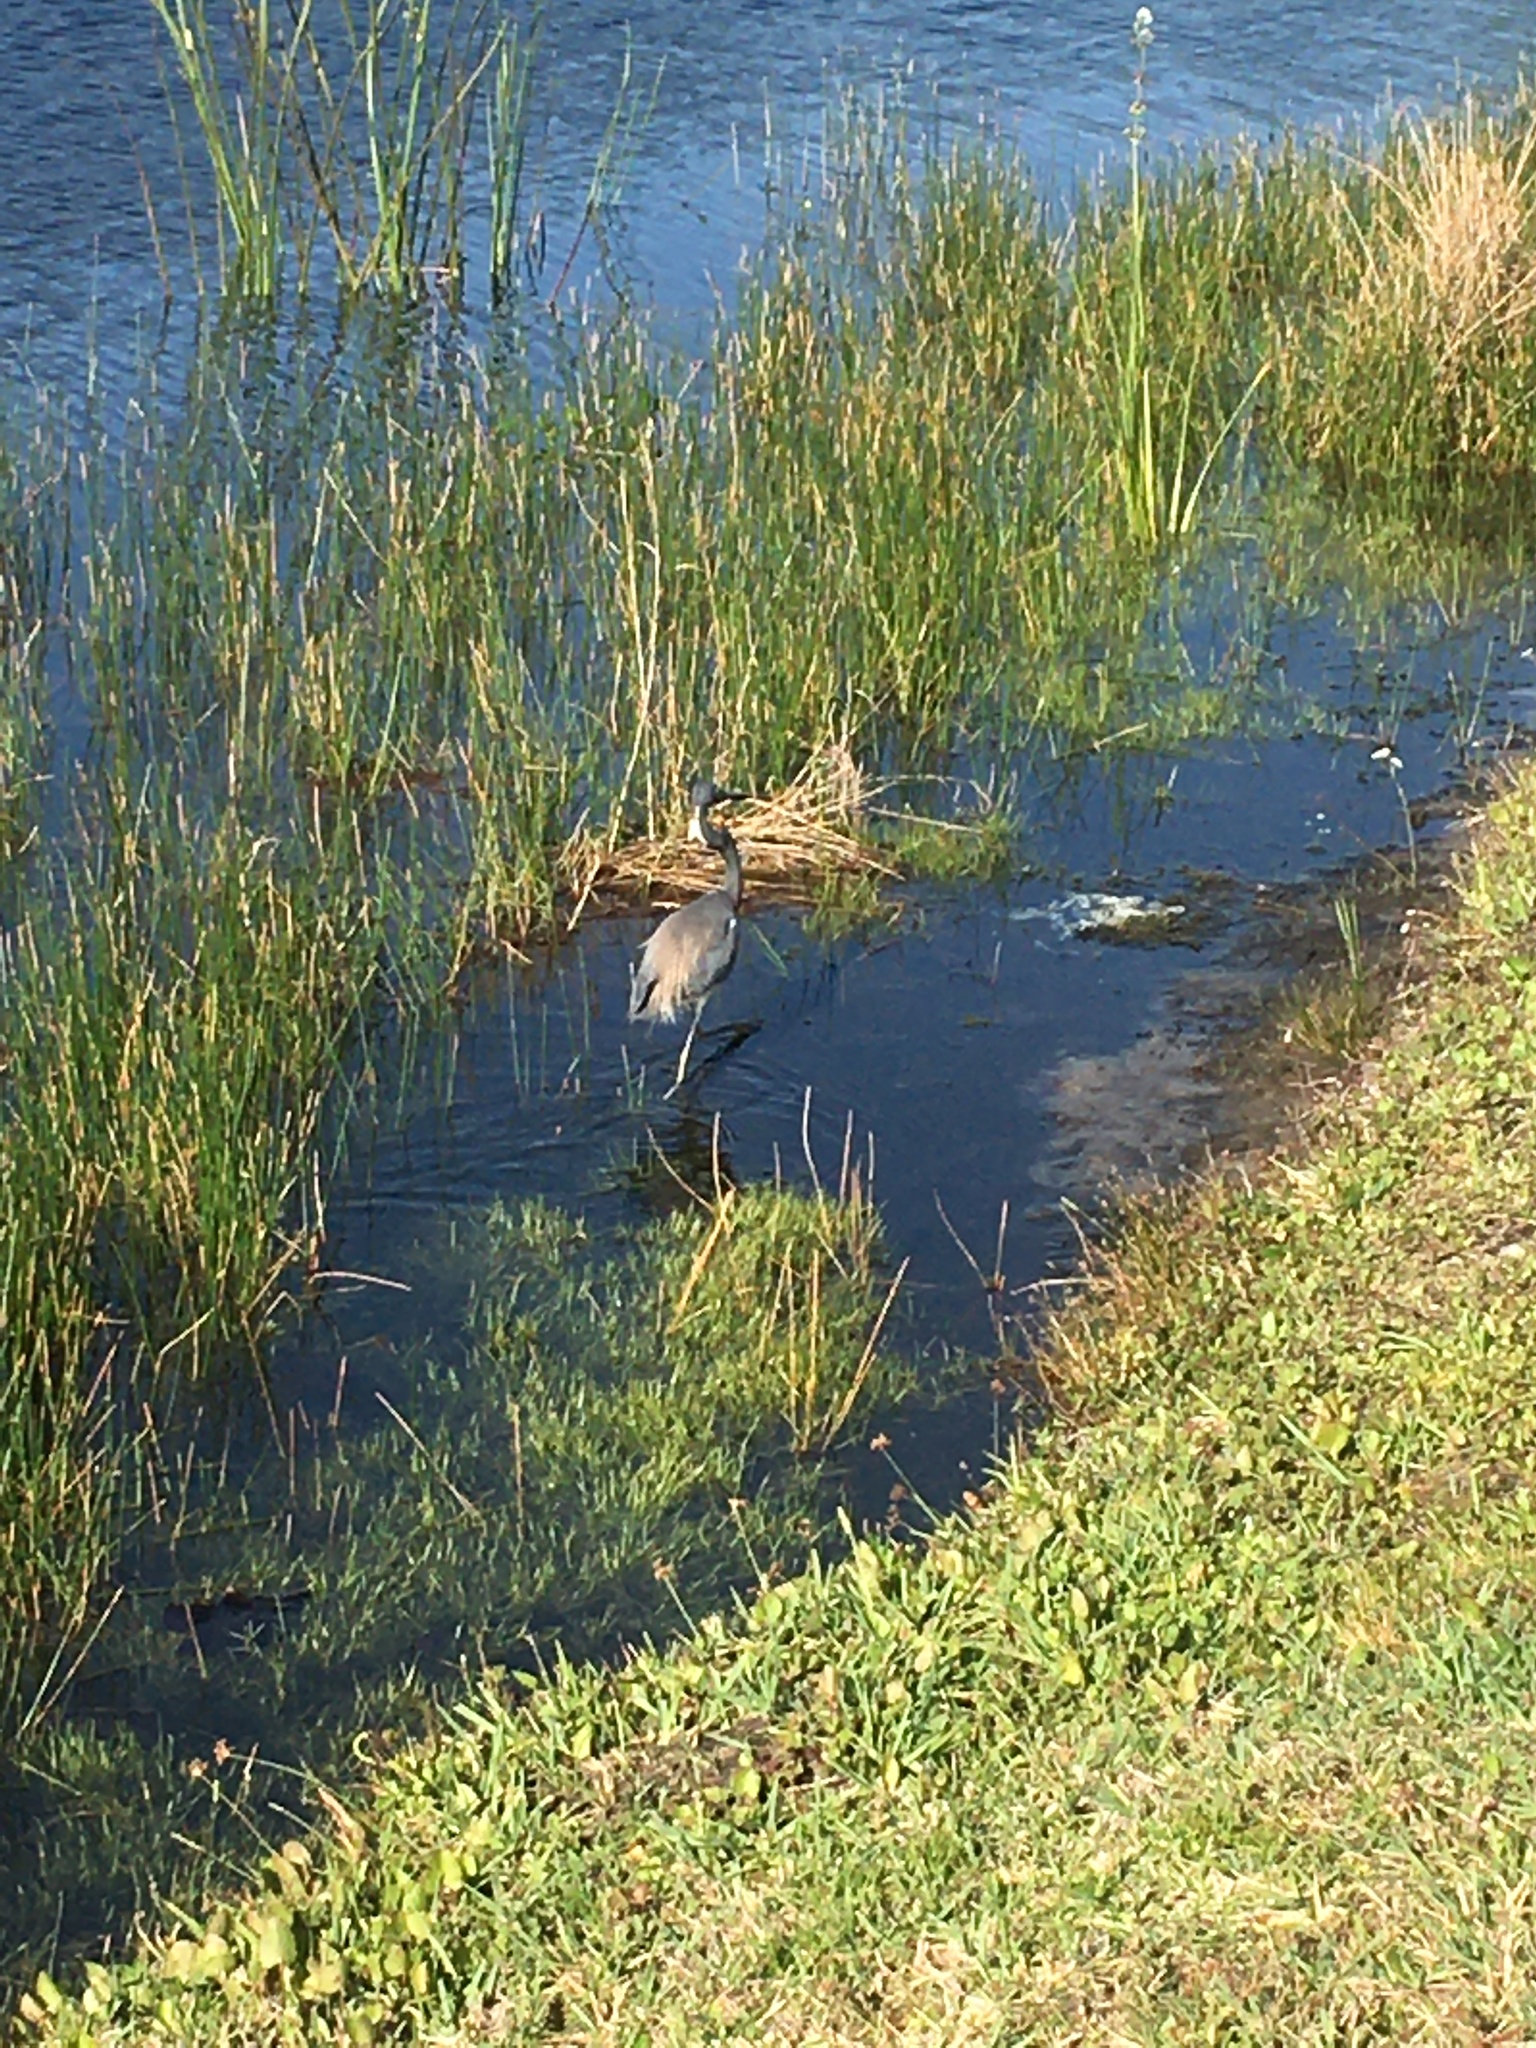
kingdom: Animalia
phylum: Chordata
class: Aves
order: Pelecaniformes
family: Ardeidae
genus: Egretta
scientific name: Egretta tricolor
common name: Tricolored heron
